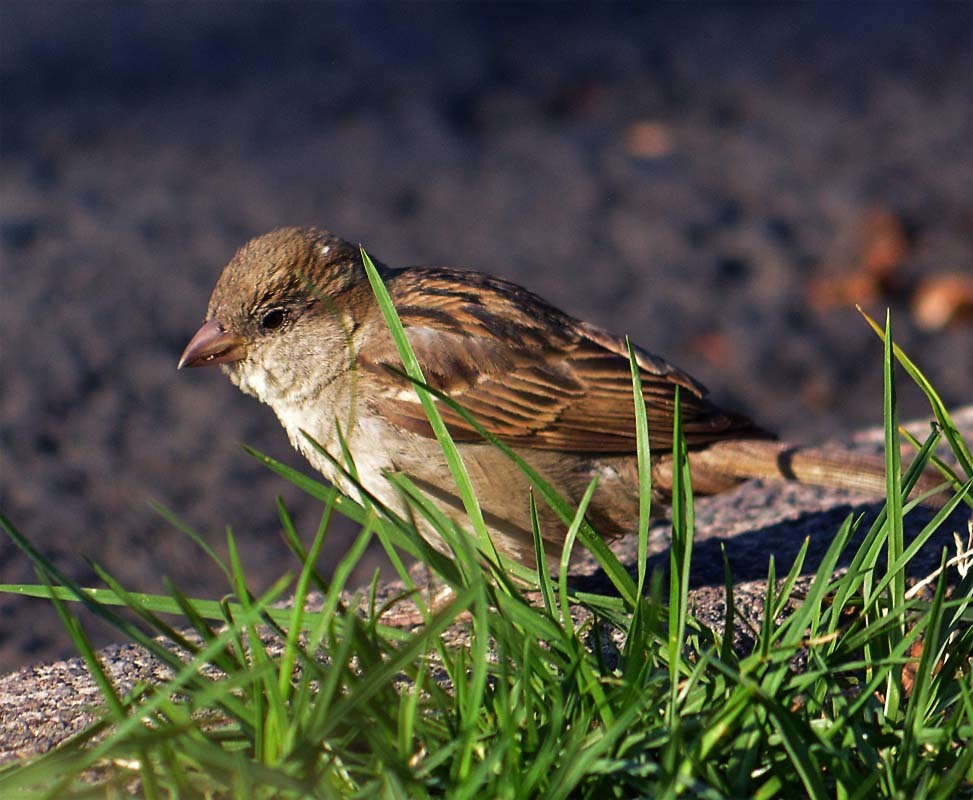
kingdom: Animalia
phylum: Chordata
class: Aves
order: Passeriformes
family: Passeridae
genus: Passer
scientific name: Passer domesticus
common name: House sparrow
